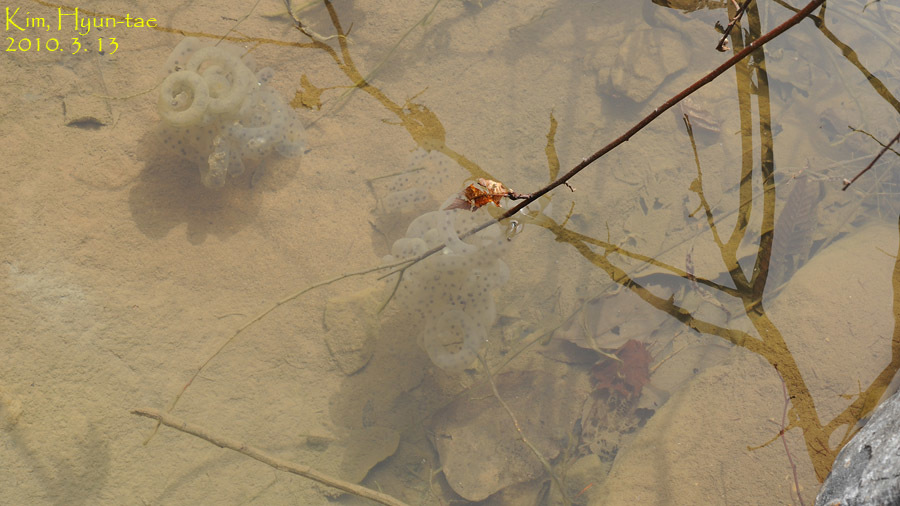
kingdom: Animalia
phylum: Chordata
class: Amphibia
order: Caudata
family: Hynobiidae
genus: Hynobius
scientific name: Hynobius leechii
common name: Gensan salamander
